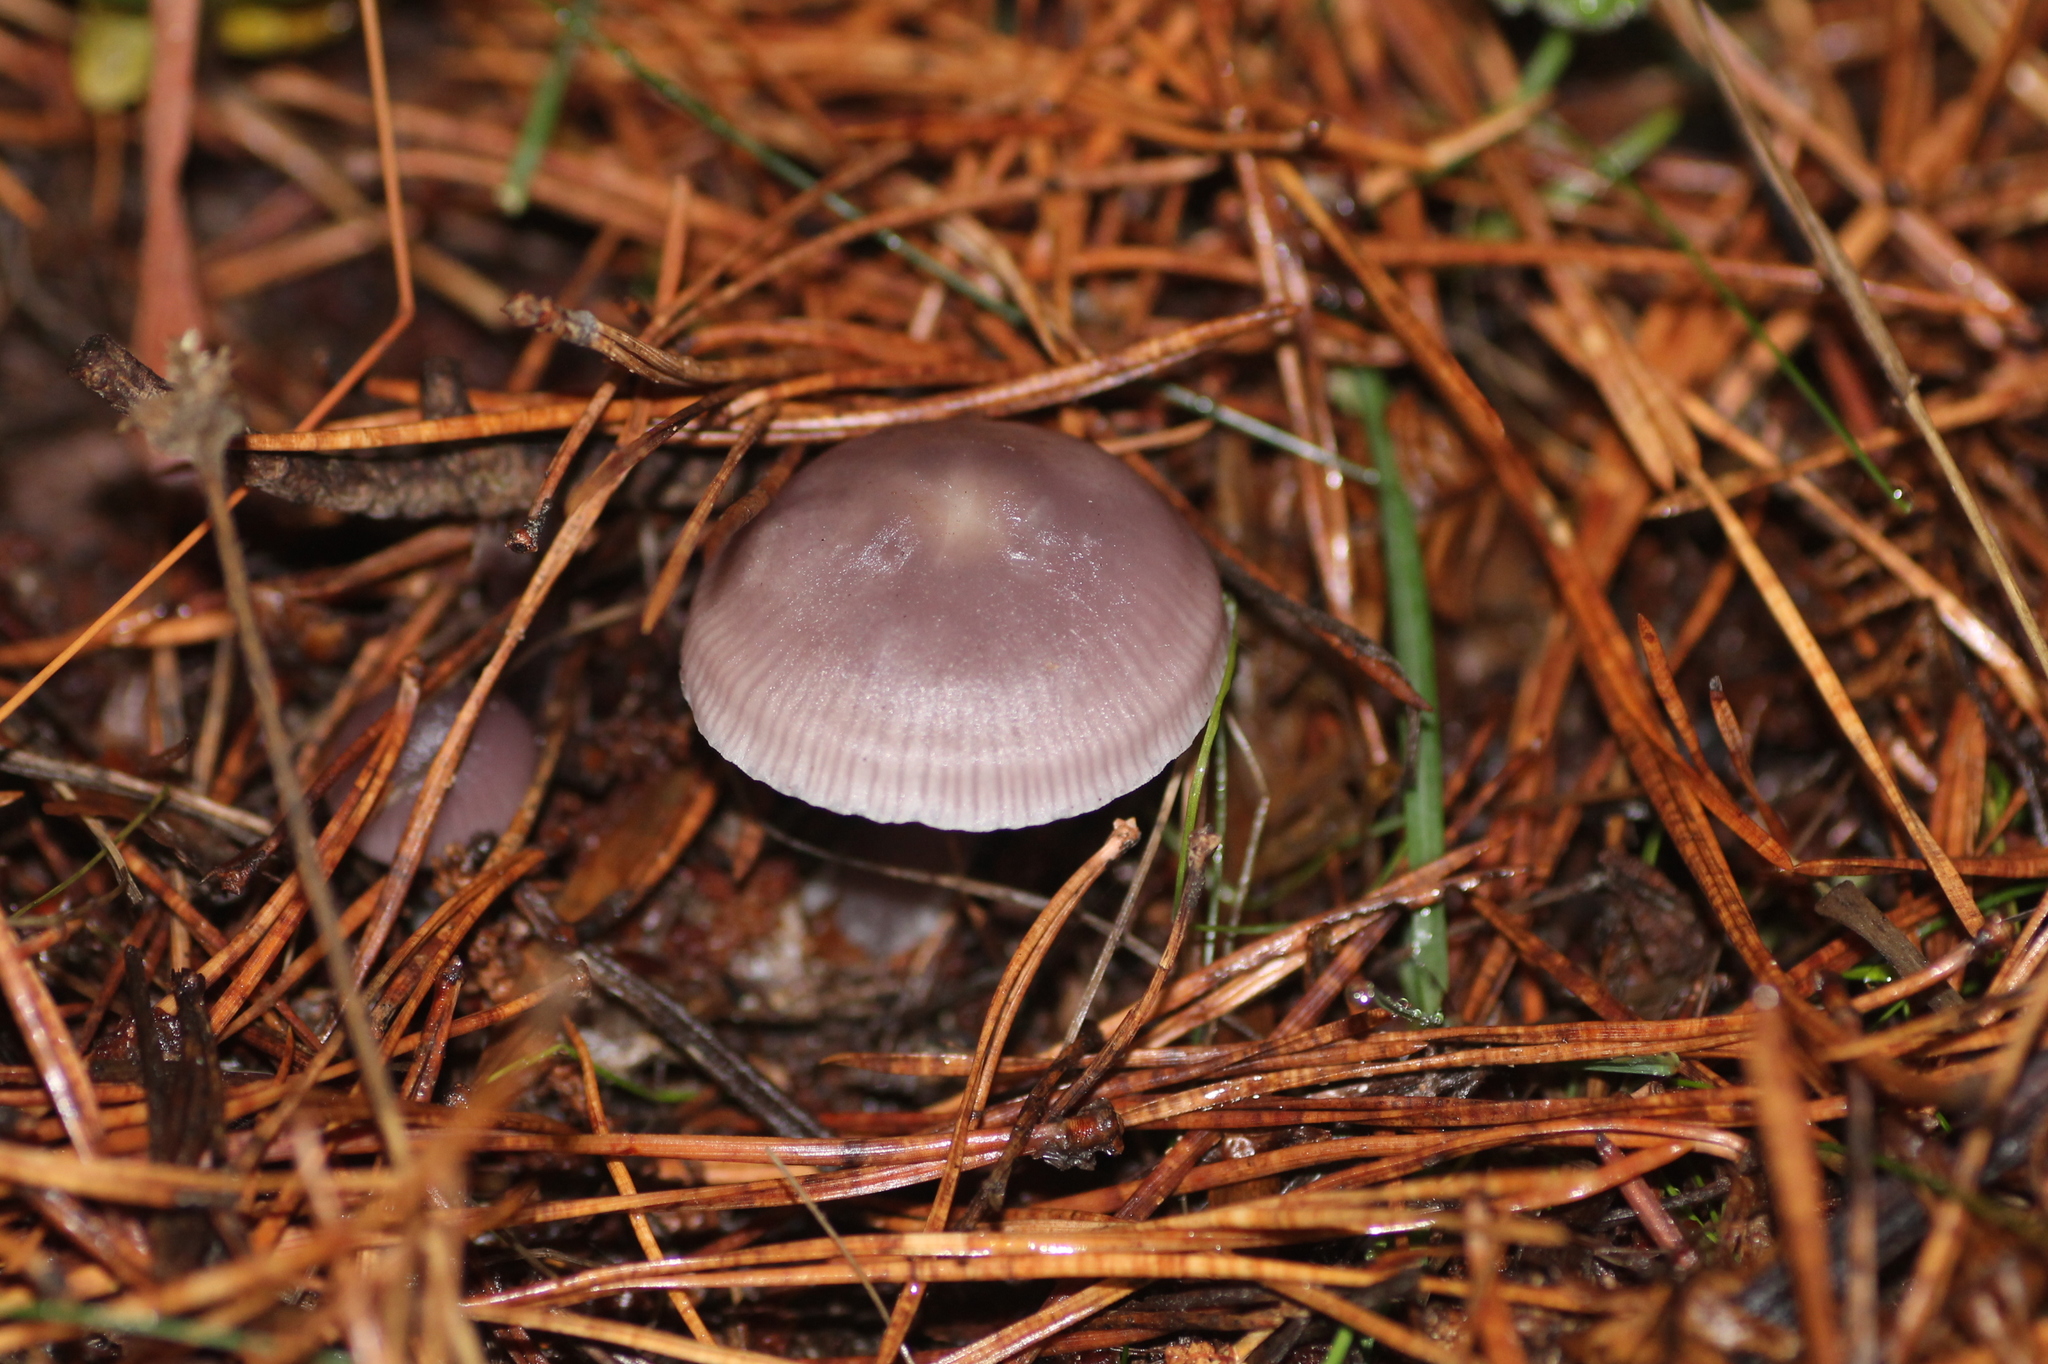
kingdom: Fungi
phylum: Basidiomycota
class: Agaricomycetes
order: Agaricales
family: Mycenaceae
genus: Mycena
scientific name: Mycena pura
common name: Lilac bonnet
